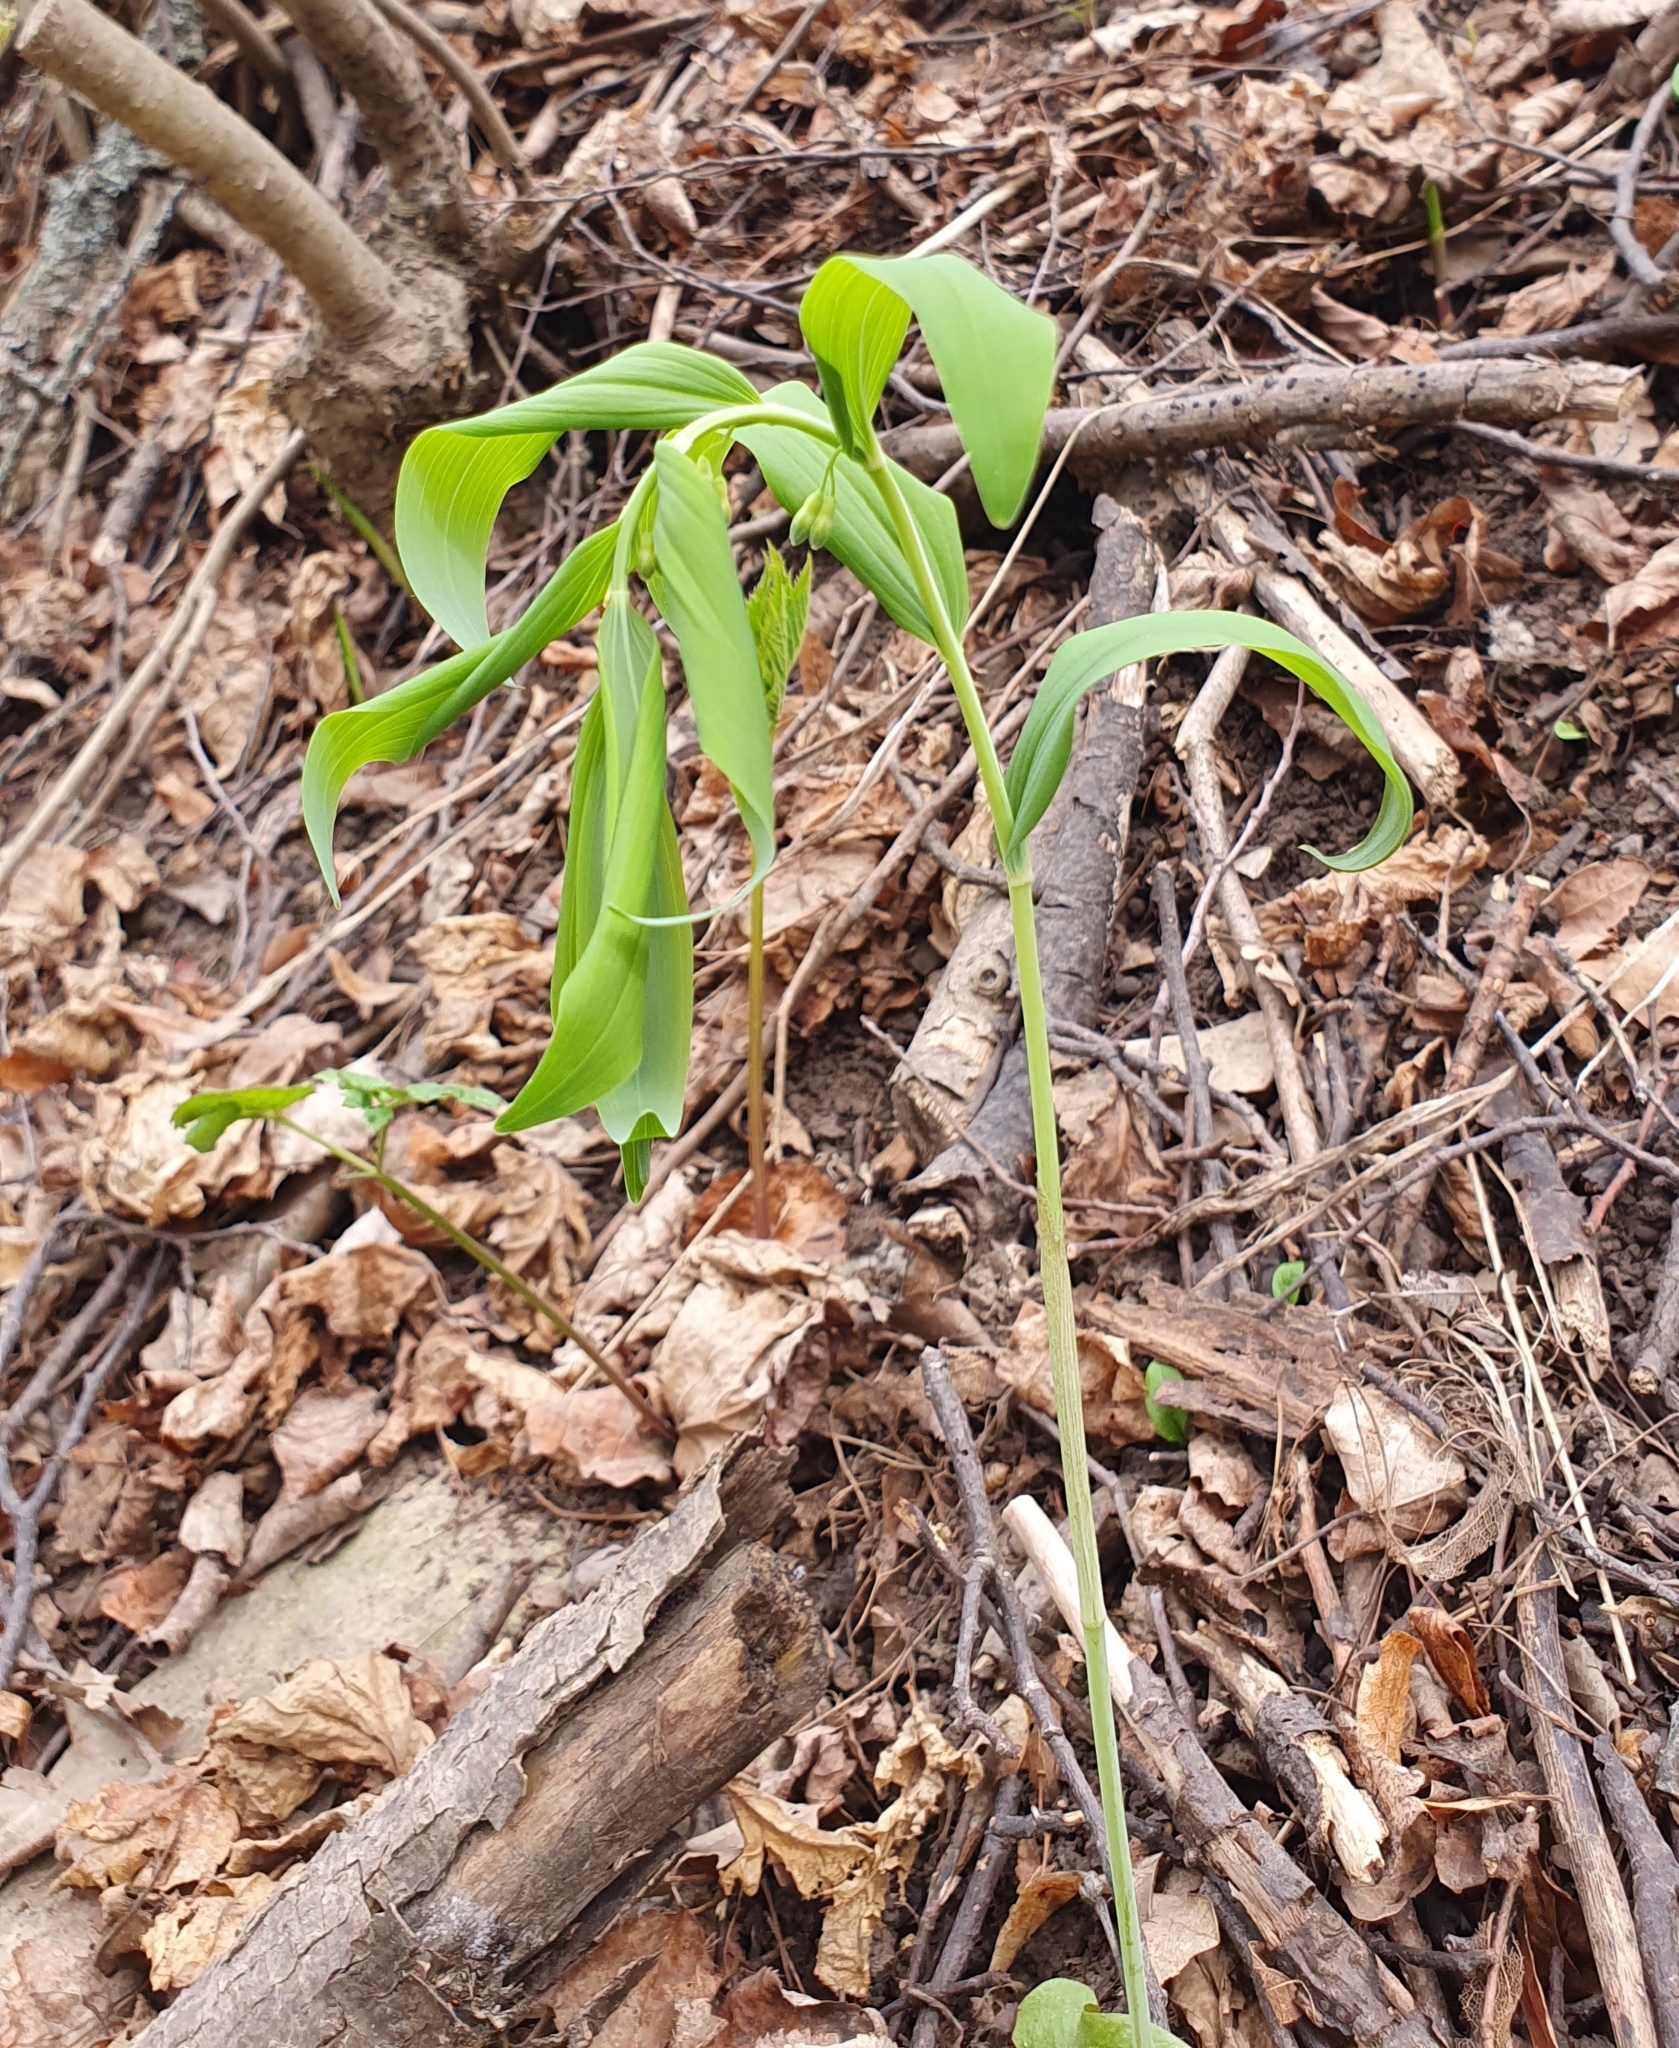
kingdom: Plantae
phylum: Tracheophyta
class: Liliopsida
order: Asparagales
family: Asparagaceae
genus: Polygonatum
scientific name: Polygonatum multiflorum
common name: Solomon's-seal
